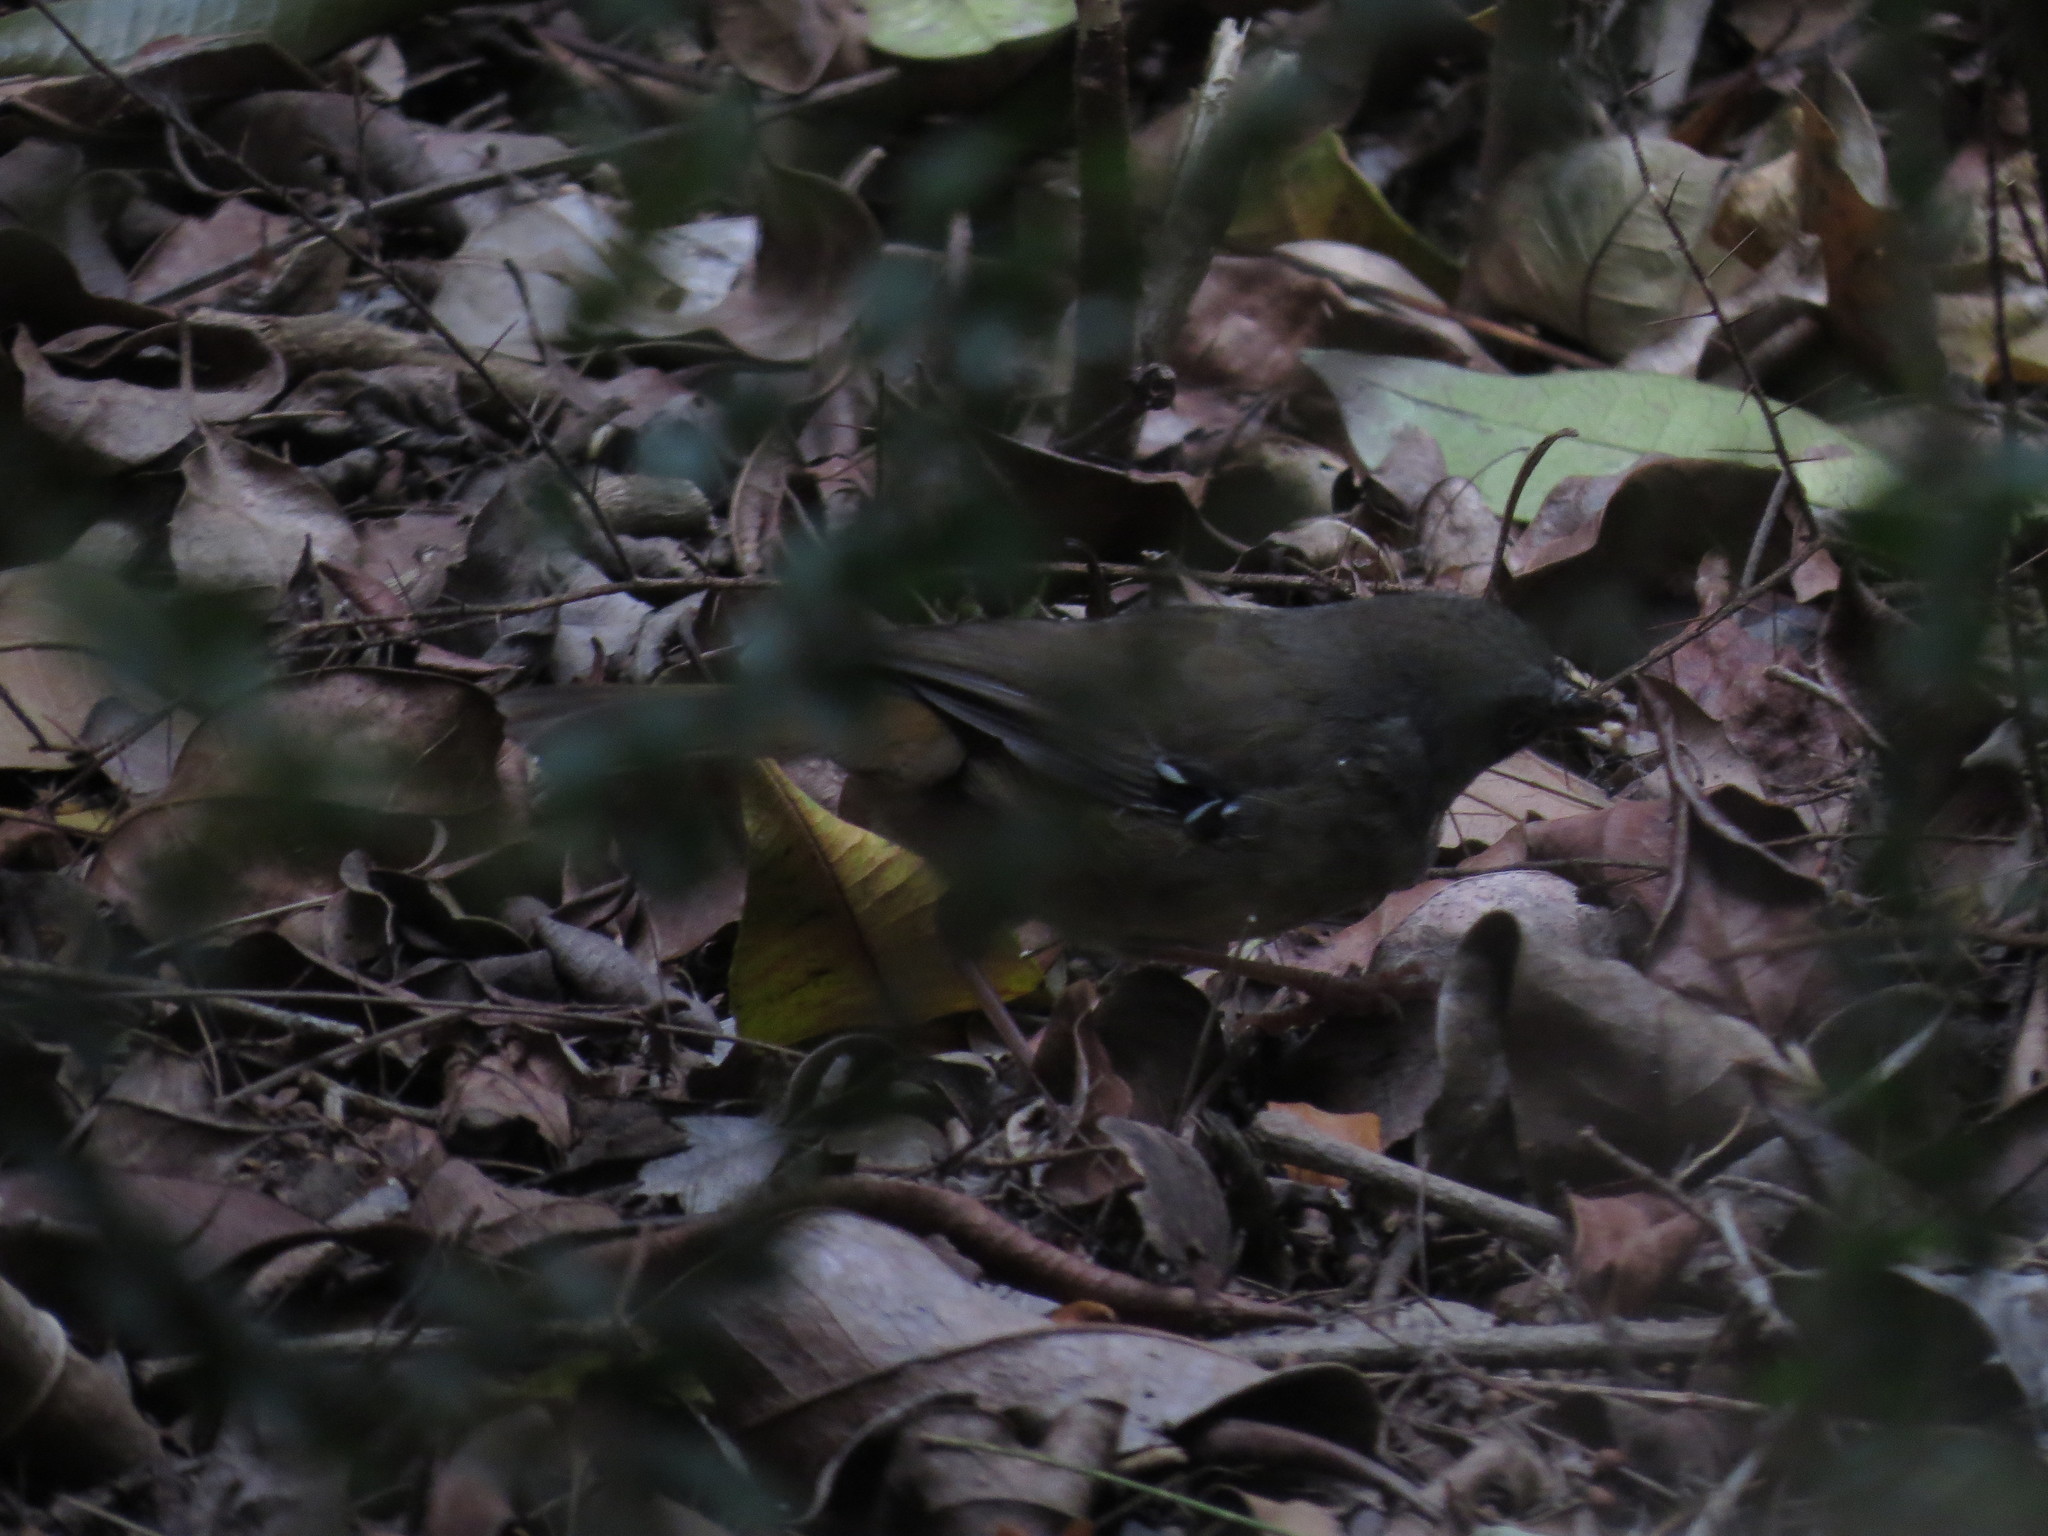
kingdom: Animalia
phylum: Chordata
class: Aves
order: Passeriformes
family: Acanthizidae
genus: Sericornis
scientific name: Sericornis frontalis
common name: White-browed scrubwren
